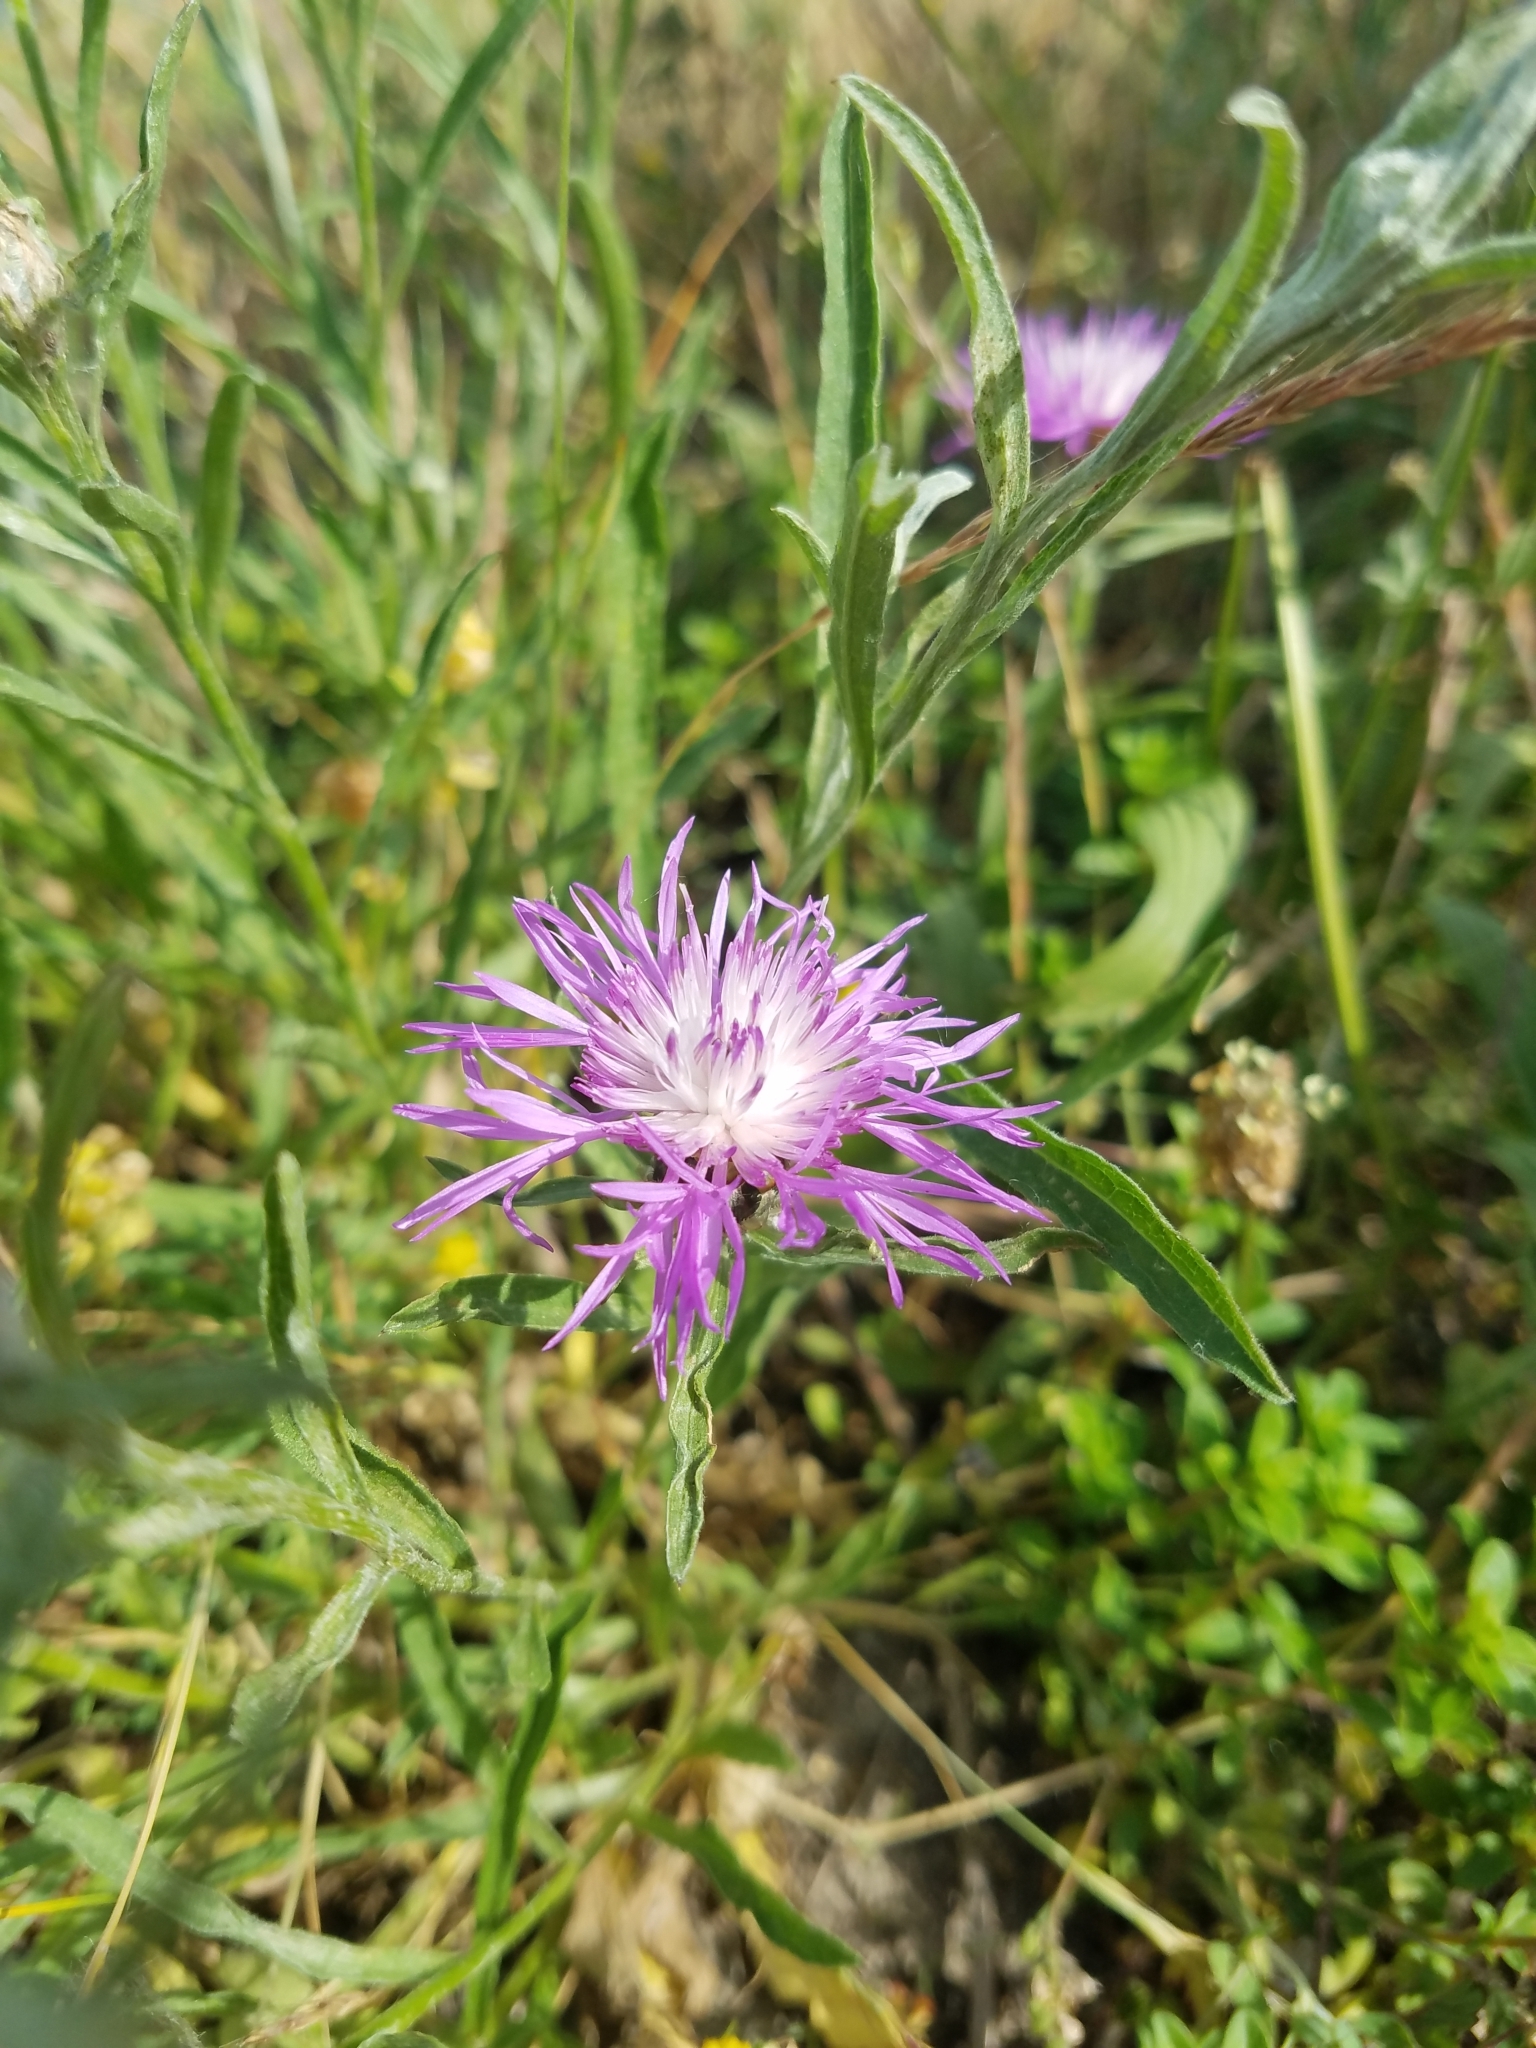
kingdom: Plantae
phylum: Tracheophyta
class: Magnoliopsida
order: Asterales
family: Asteraceae
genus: Centaurea
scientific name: Centaurea jacea
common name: Brown knapweed
